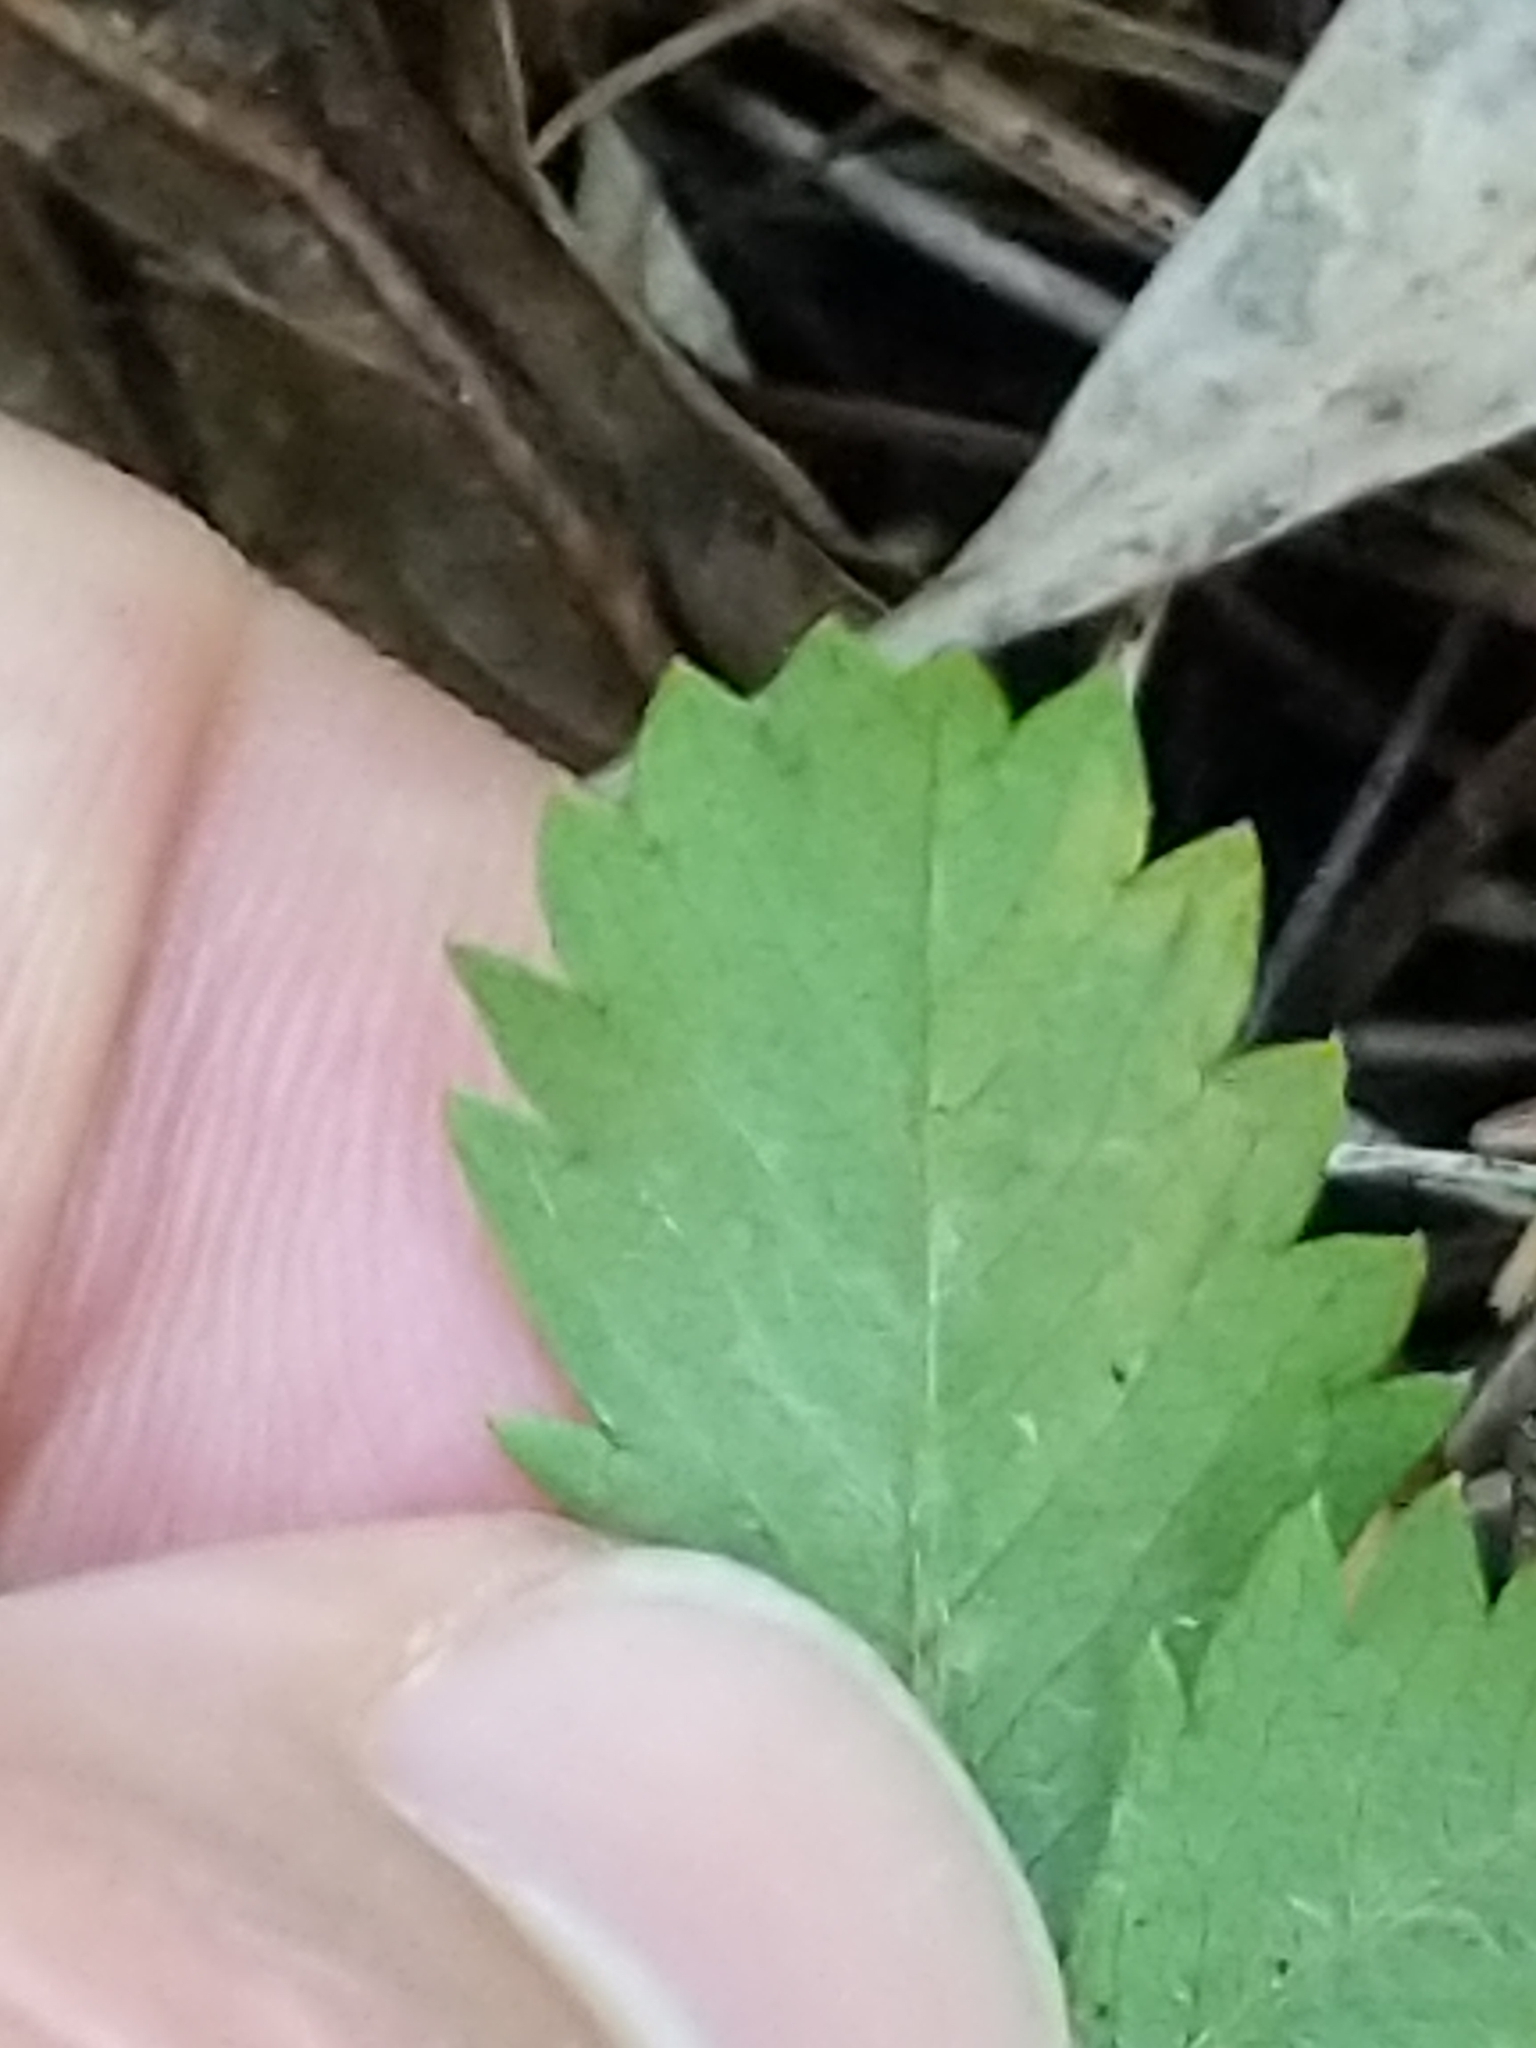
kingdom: Animalia
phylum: Arthropoda
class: Insecta
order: Diptera
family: Agromyzidae
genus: Agromyza
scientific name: Agromyza idaeiana
